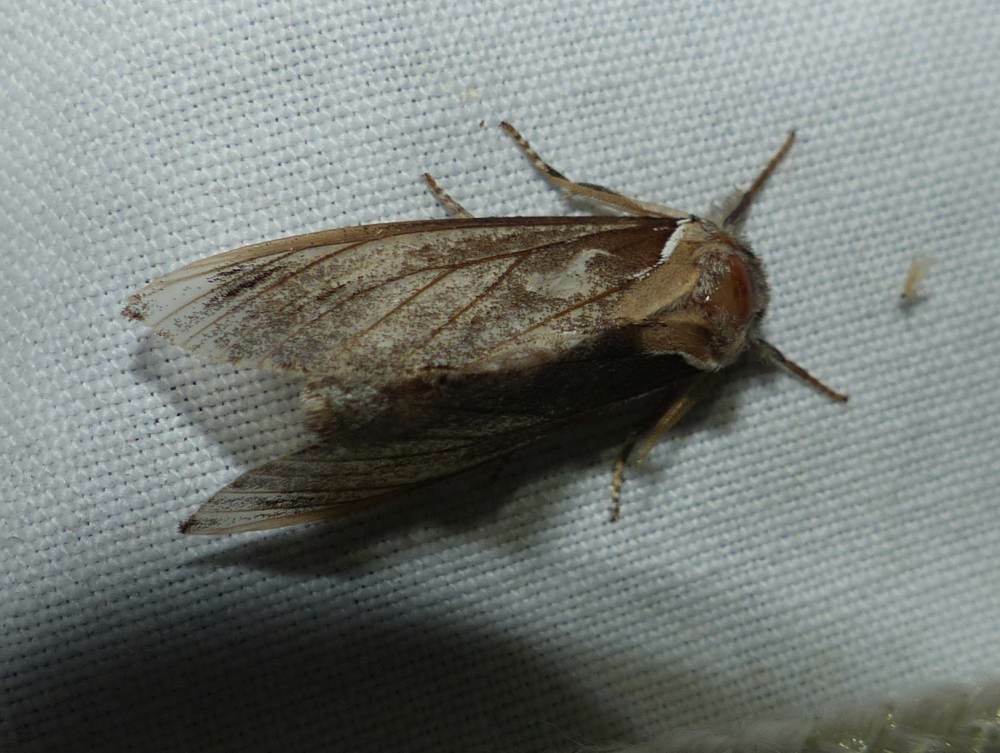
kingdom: Animalia
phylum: Arthropoda
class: Insecta
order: Lepidoptera
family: Notodontidae
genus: Pheosidea
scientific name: Pheosidea elegans
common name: Elegant prominent
